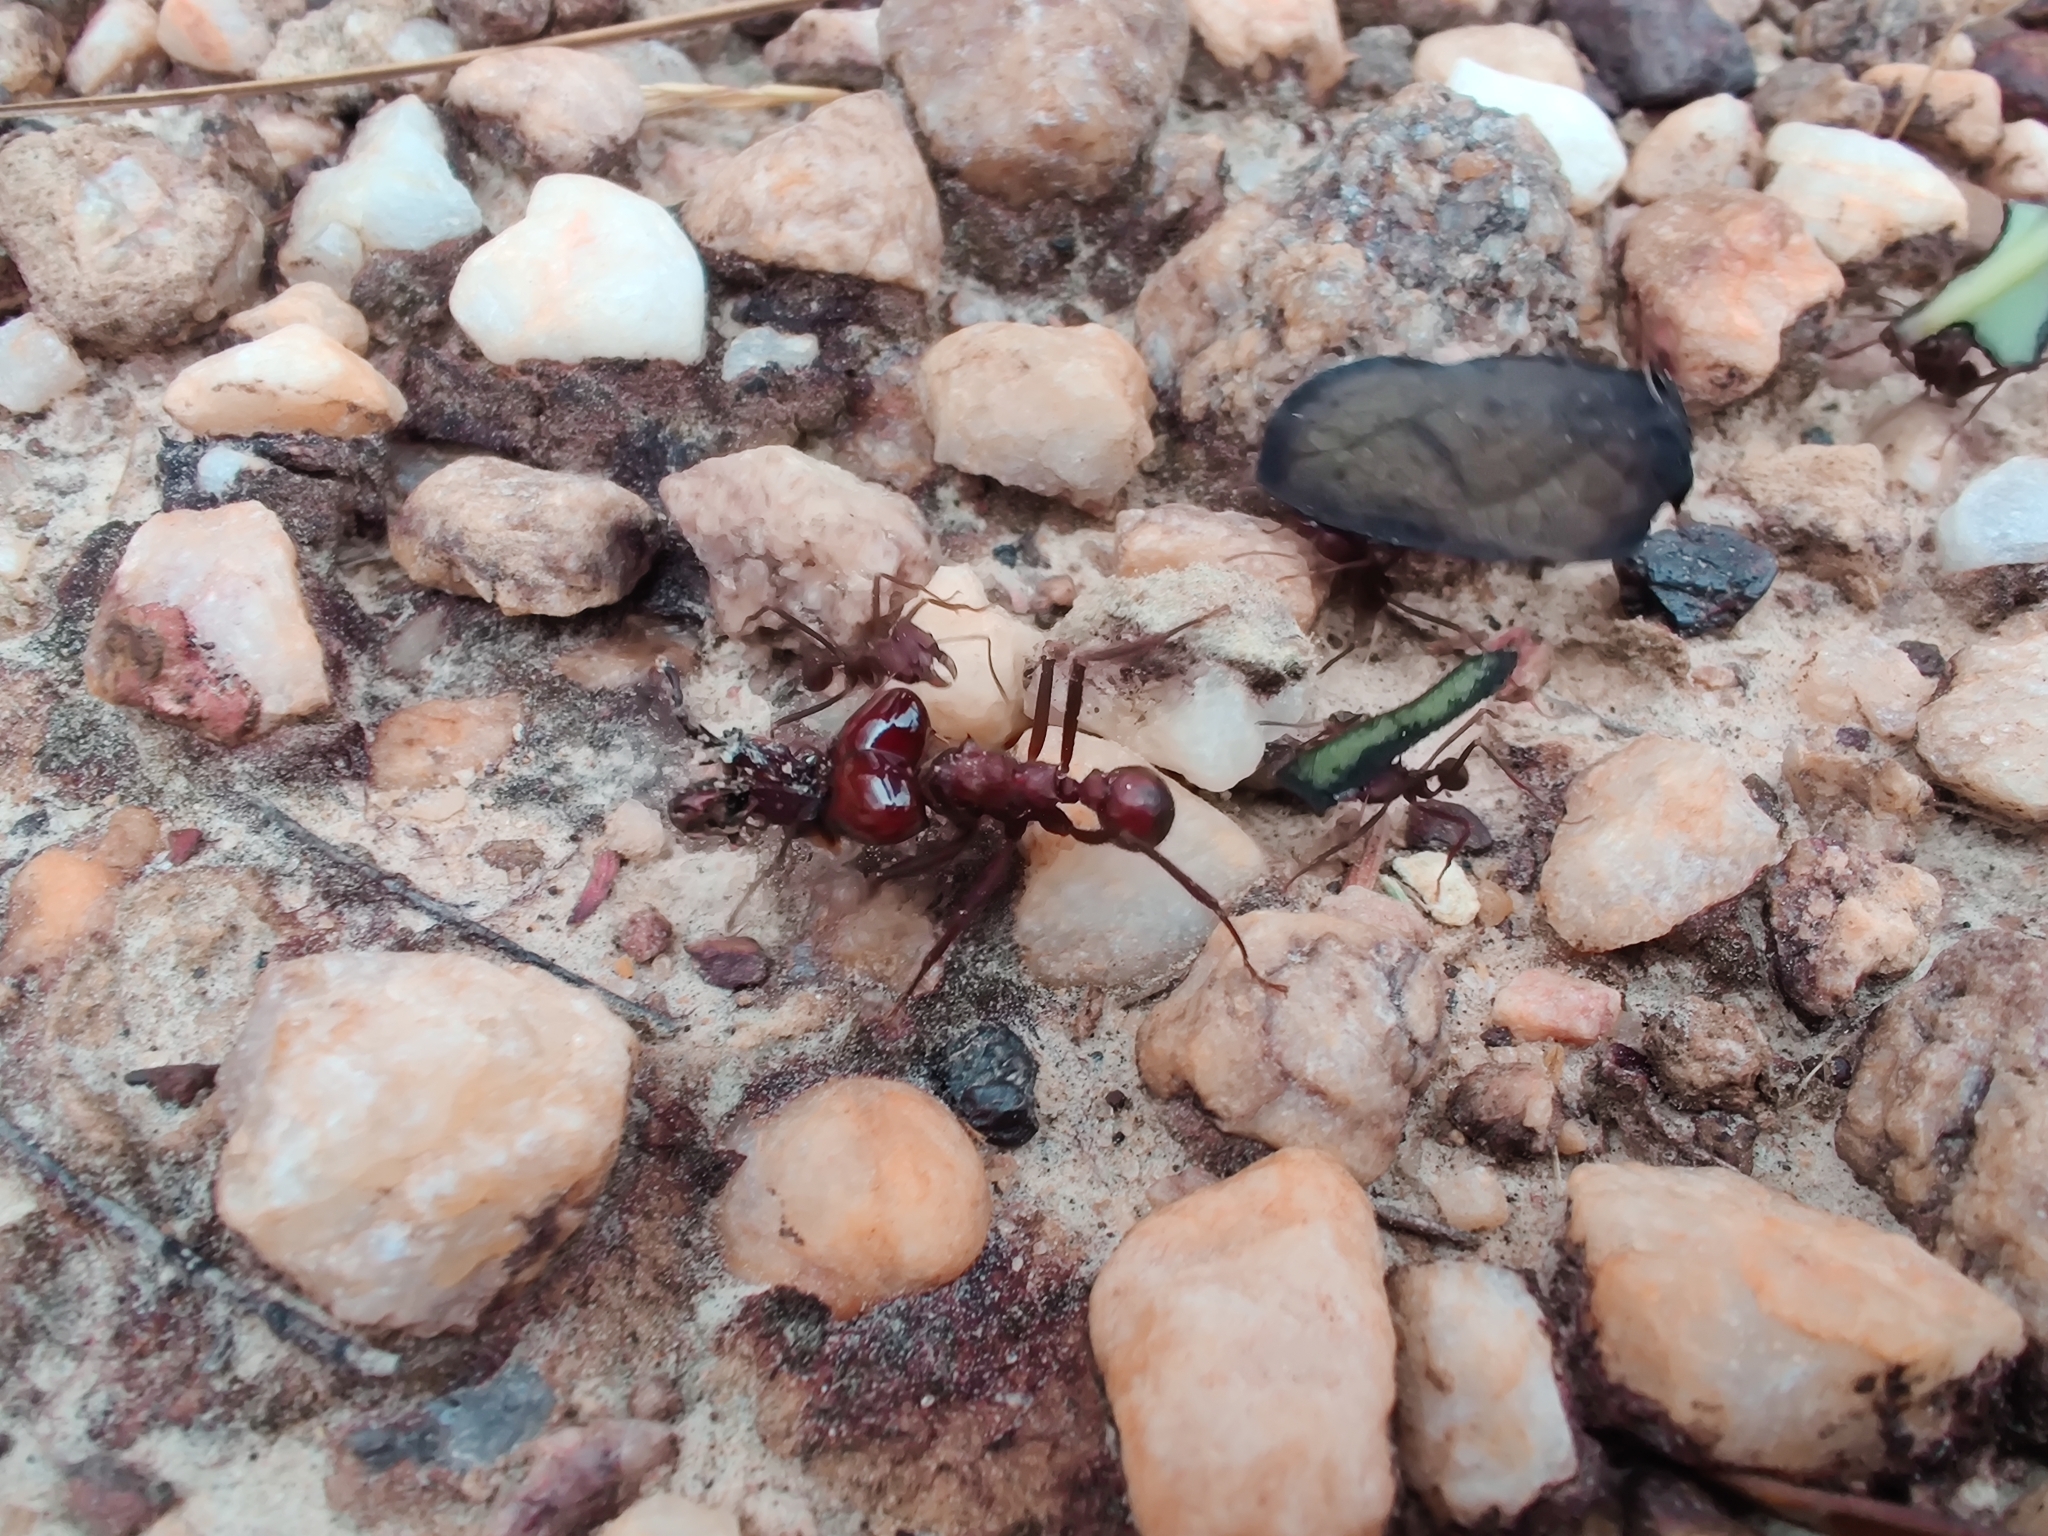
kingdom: Animalia
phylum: Arthropoda
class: Insecta
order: Hymenoptera
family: Formicidae
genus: Atta
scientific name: Atta laevigata
